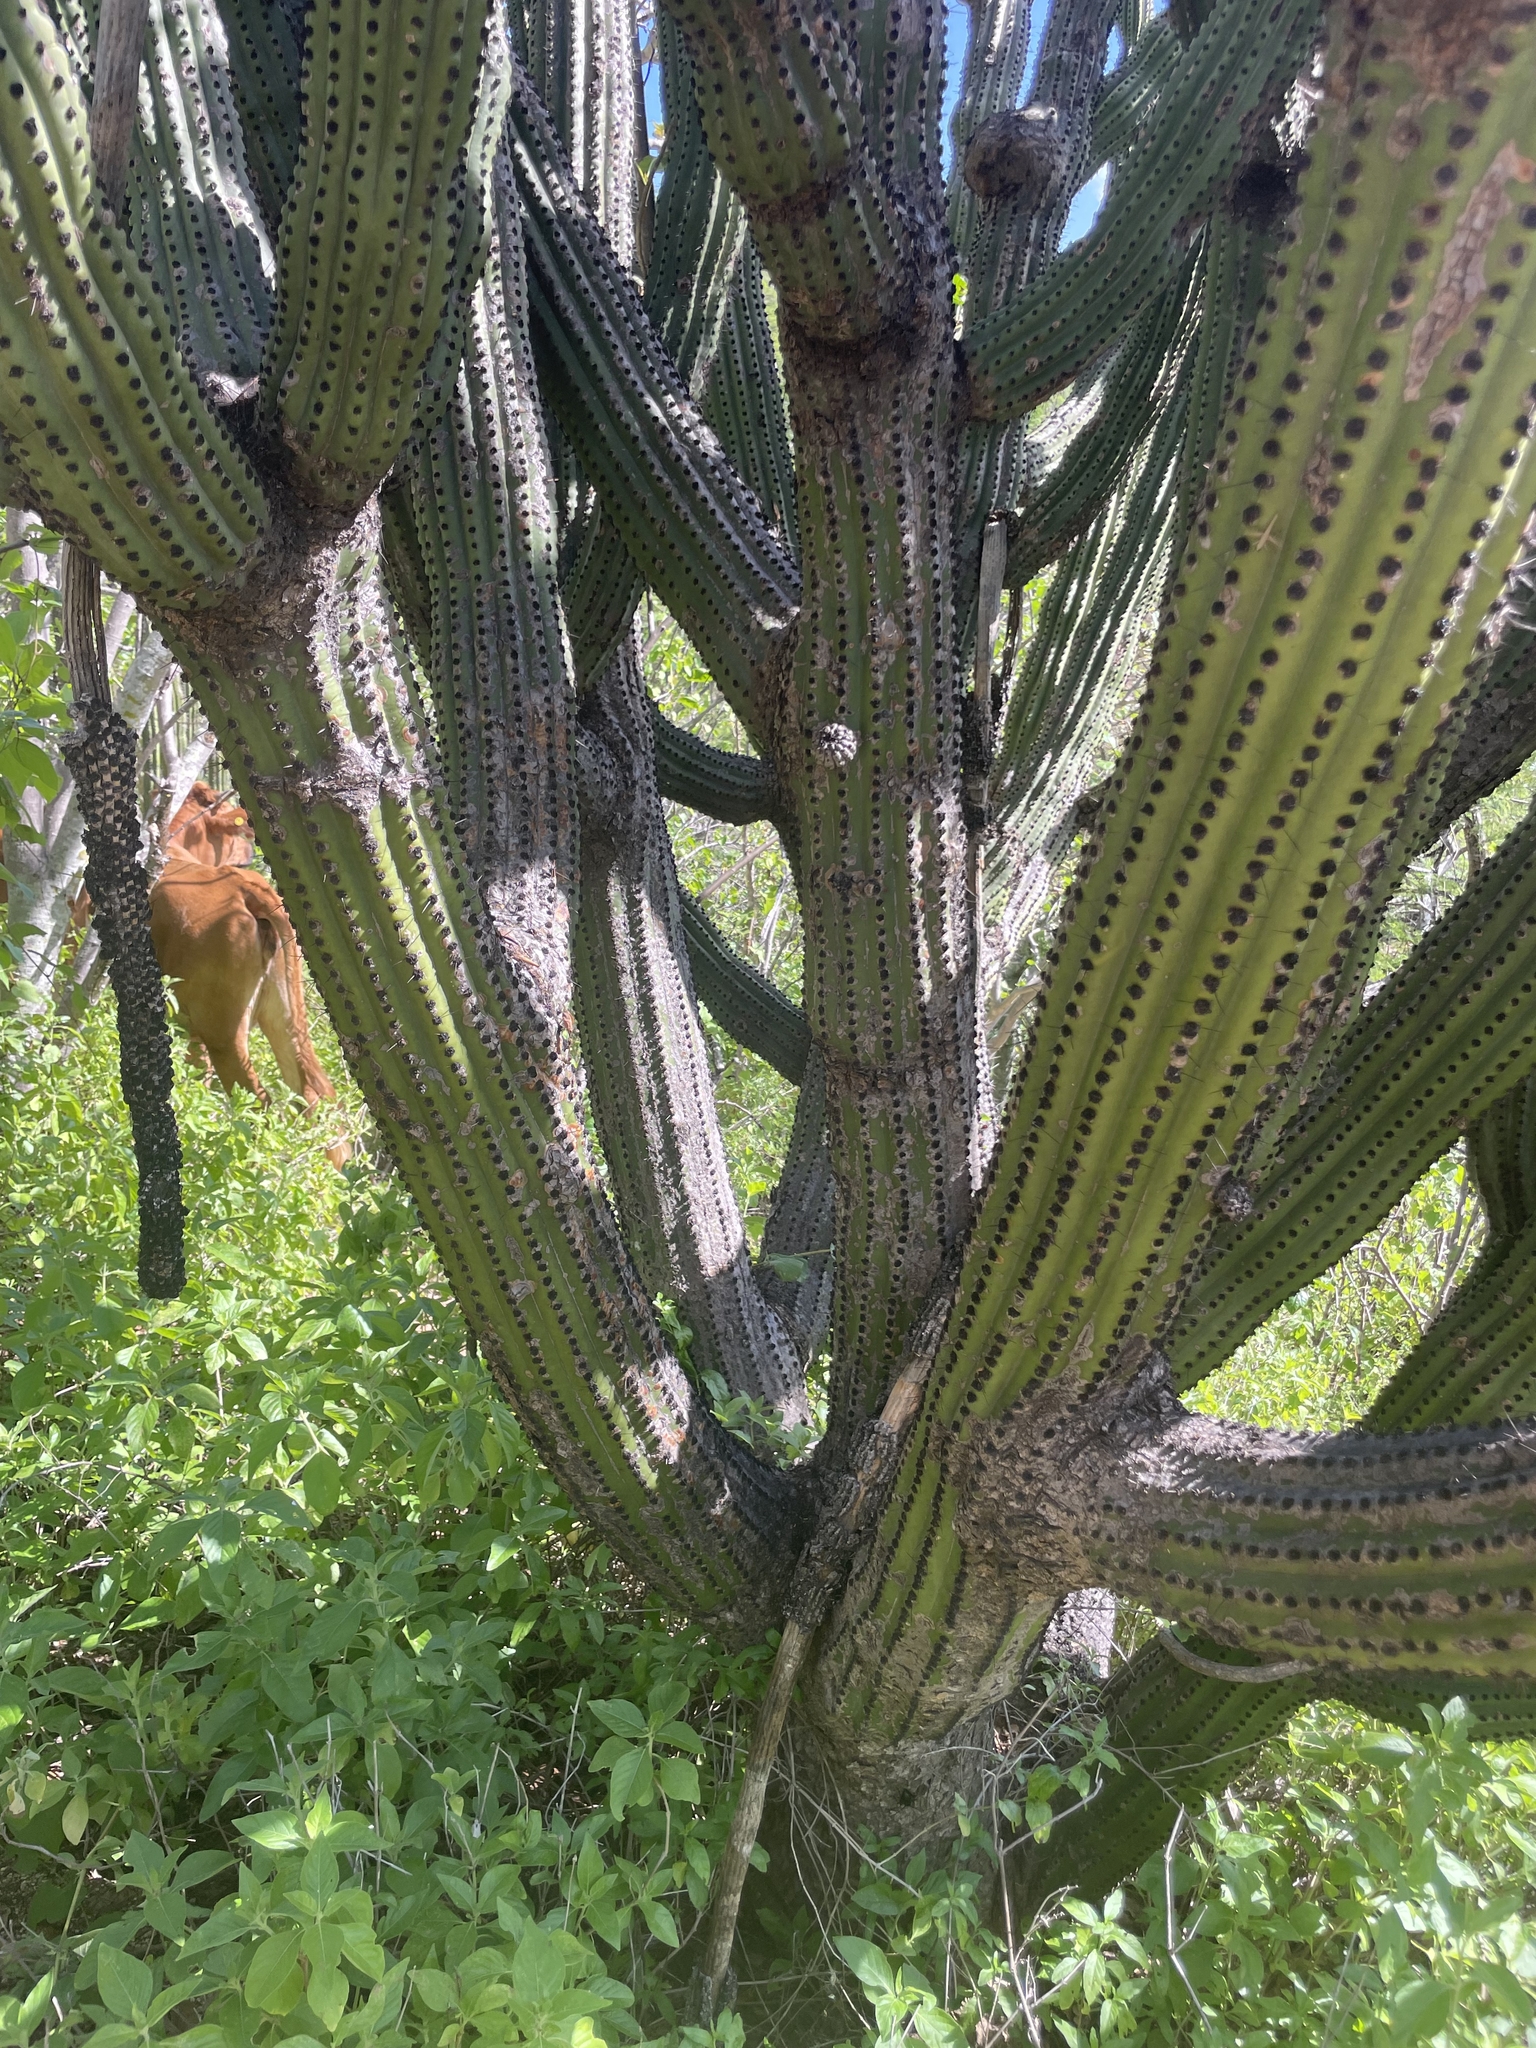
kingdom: Plantae
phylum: Tracheophyta
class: Magnoliopsida
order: Caryophyllales
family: Cactaceae
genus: Pachycereus
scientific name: Pachycereus pecten-aboriginum
